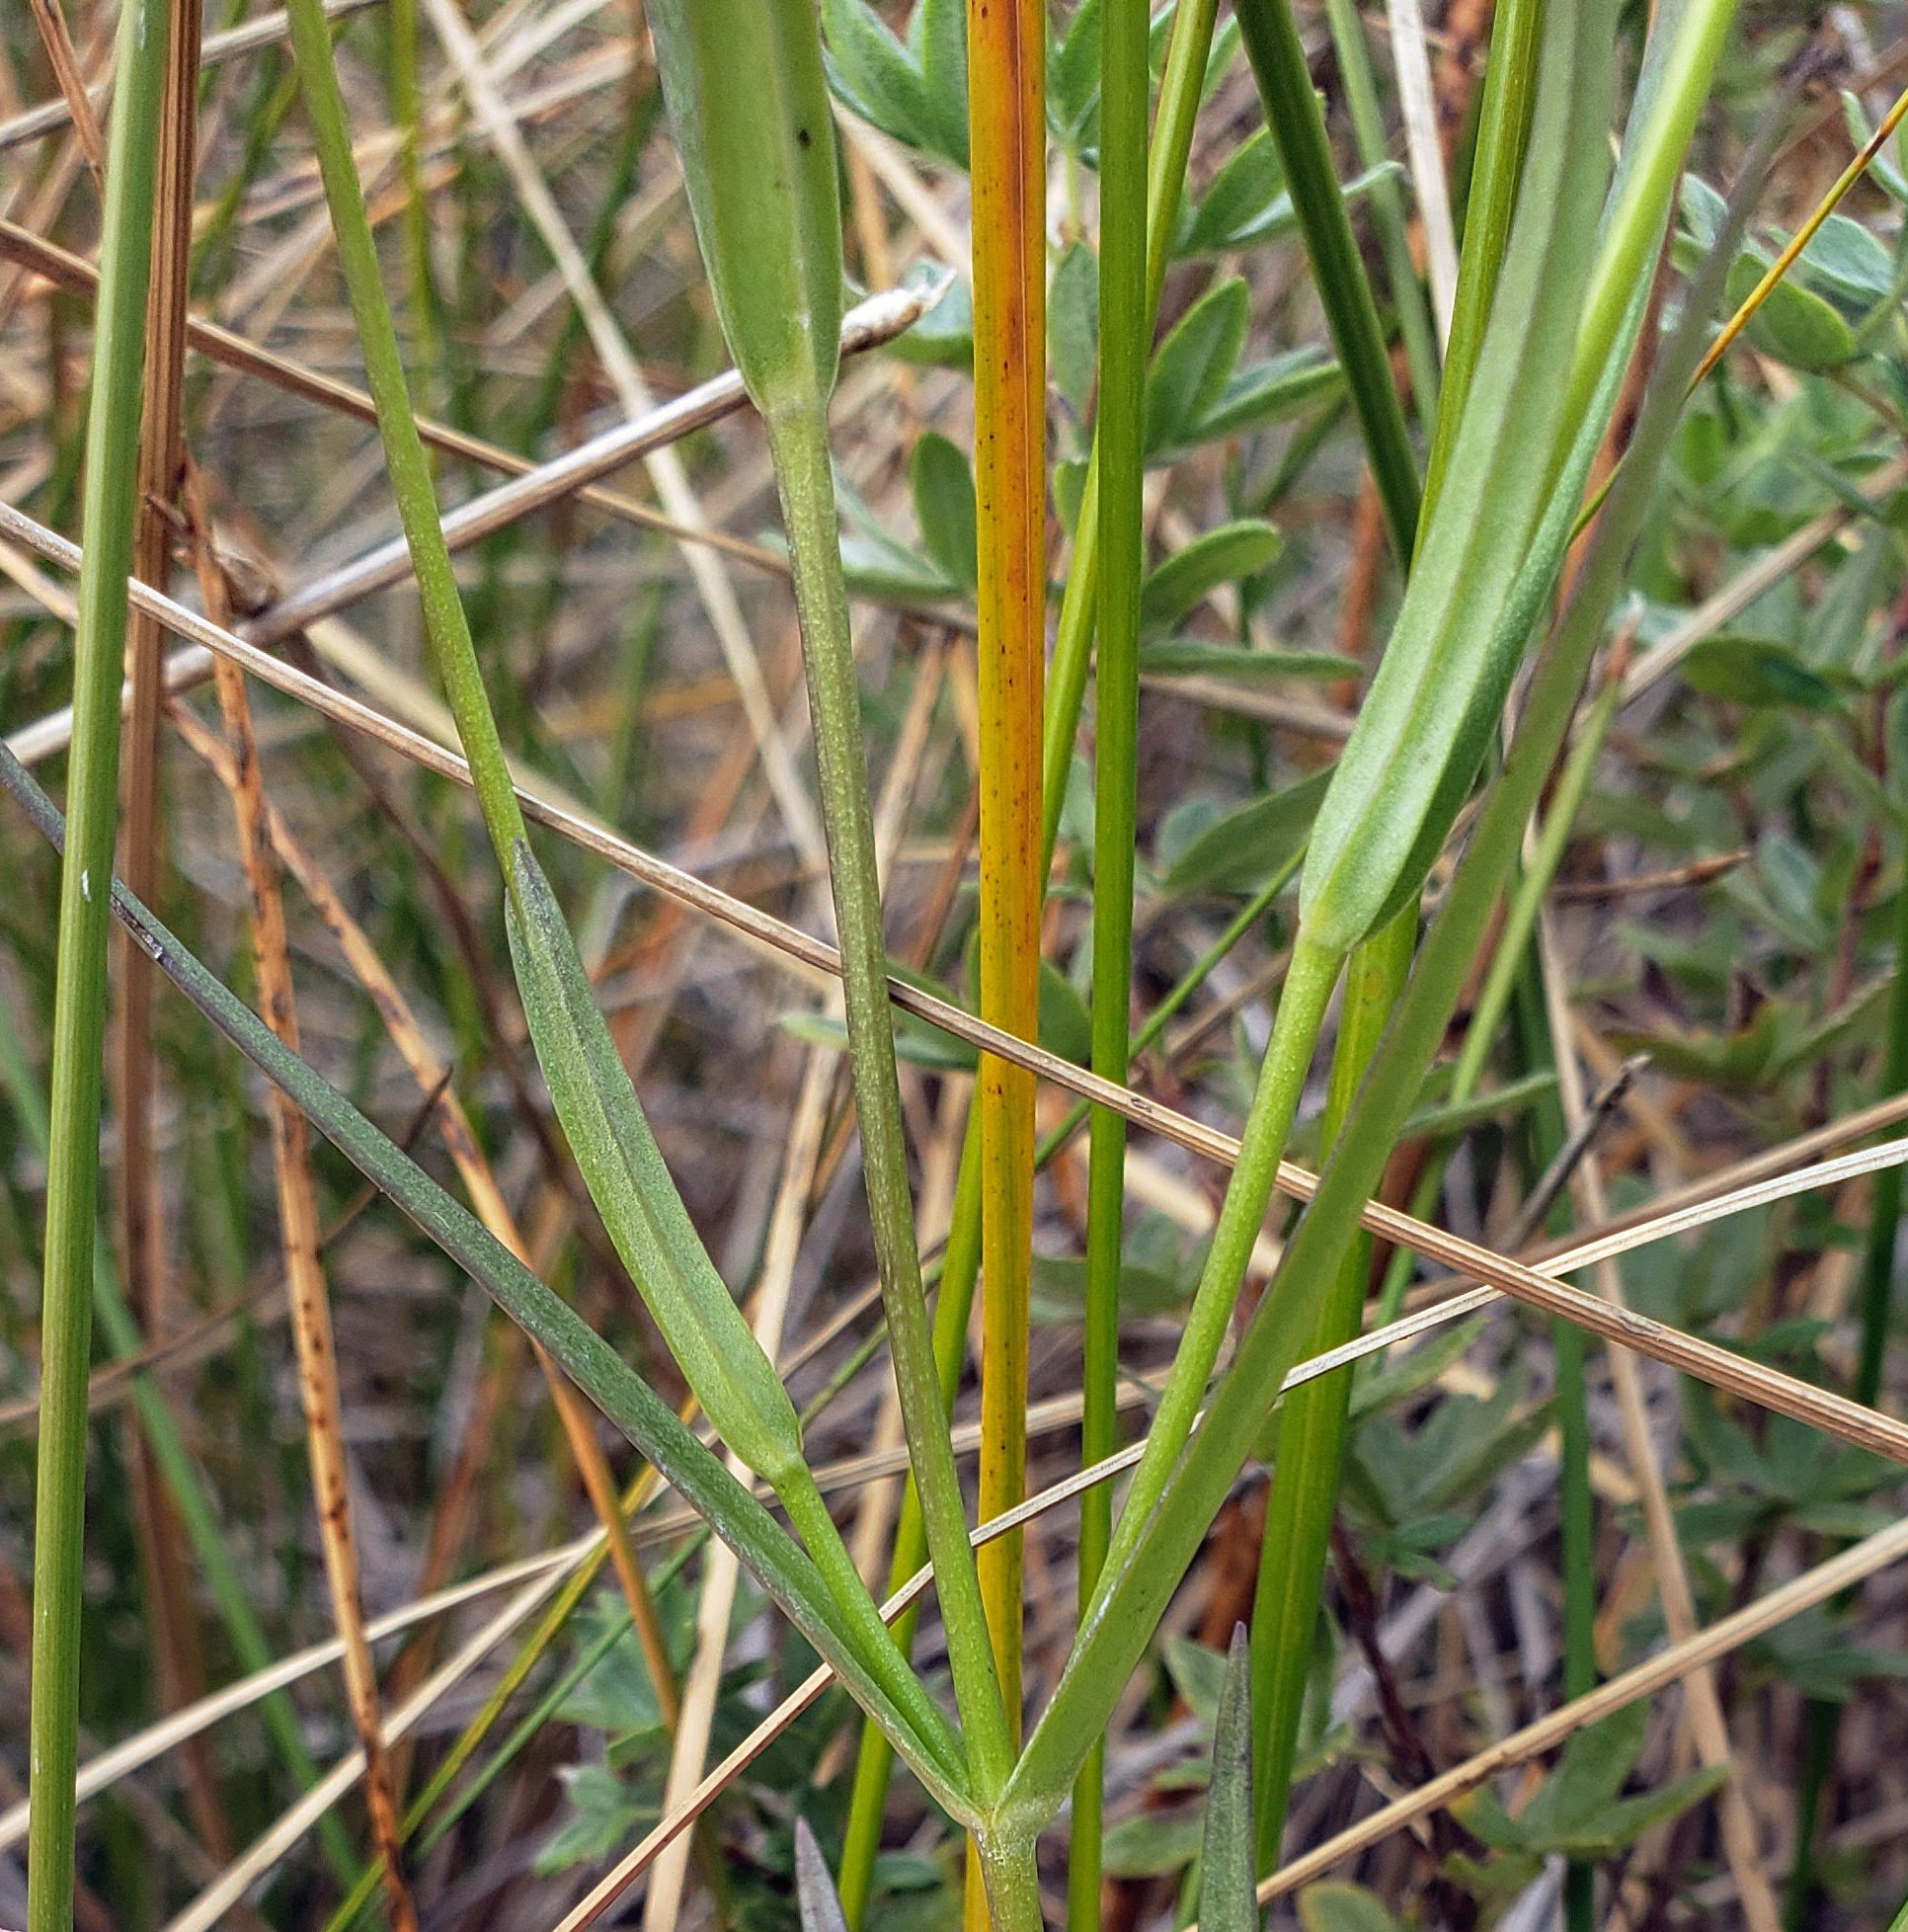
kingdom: Plantae
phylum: Tracheophyta
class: Magnoliopsida
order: Gentianales
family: Gentianaceae
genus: Gentianopsis
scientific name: Gentianopsis virgata
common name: Lesser fringed-gentian
